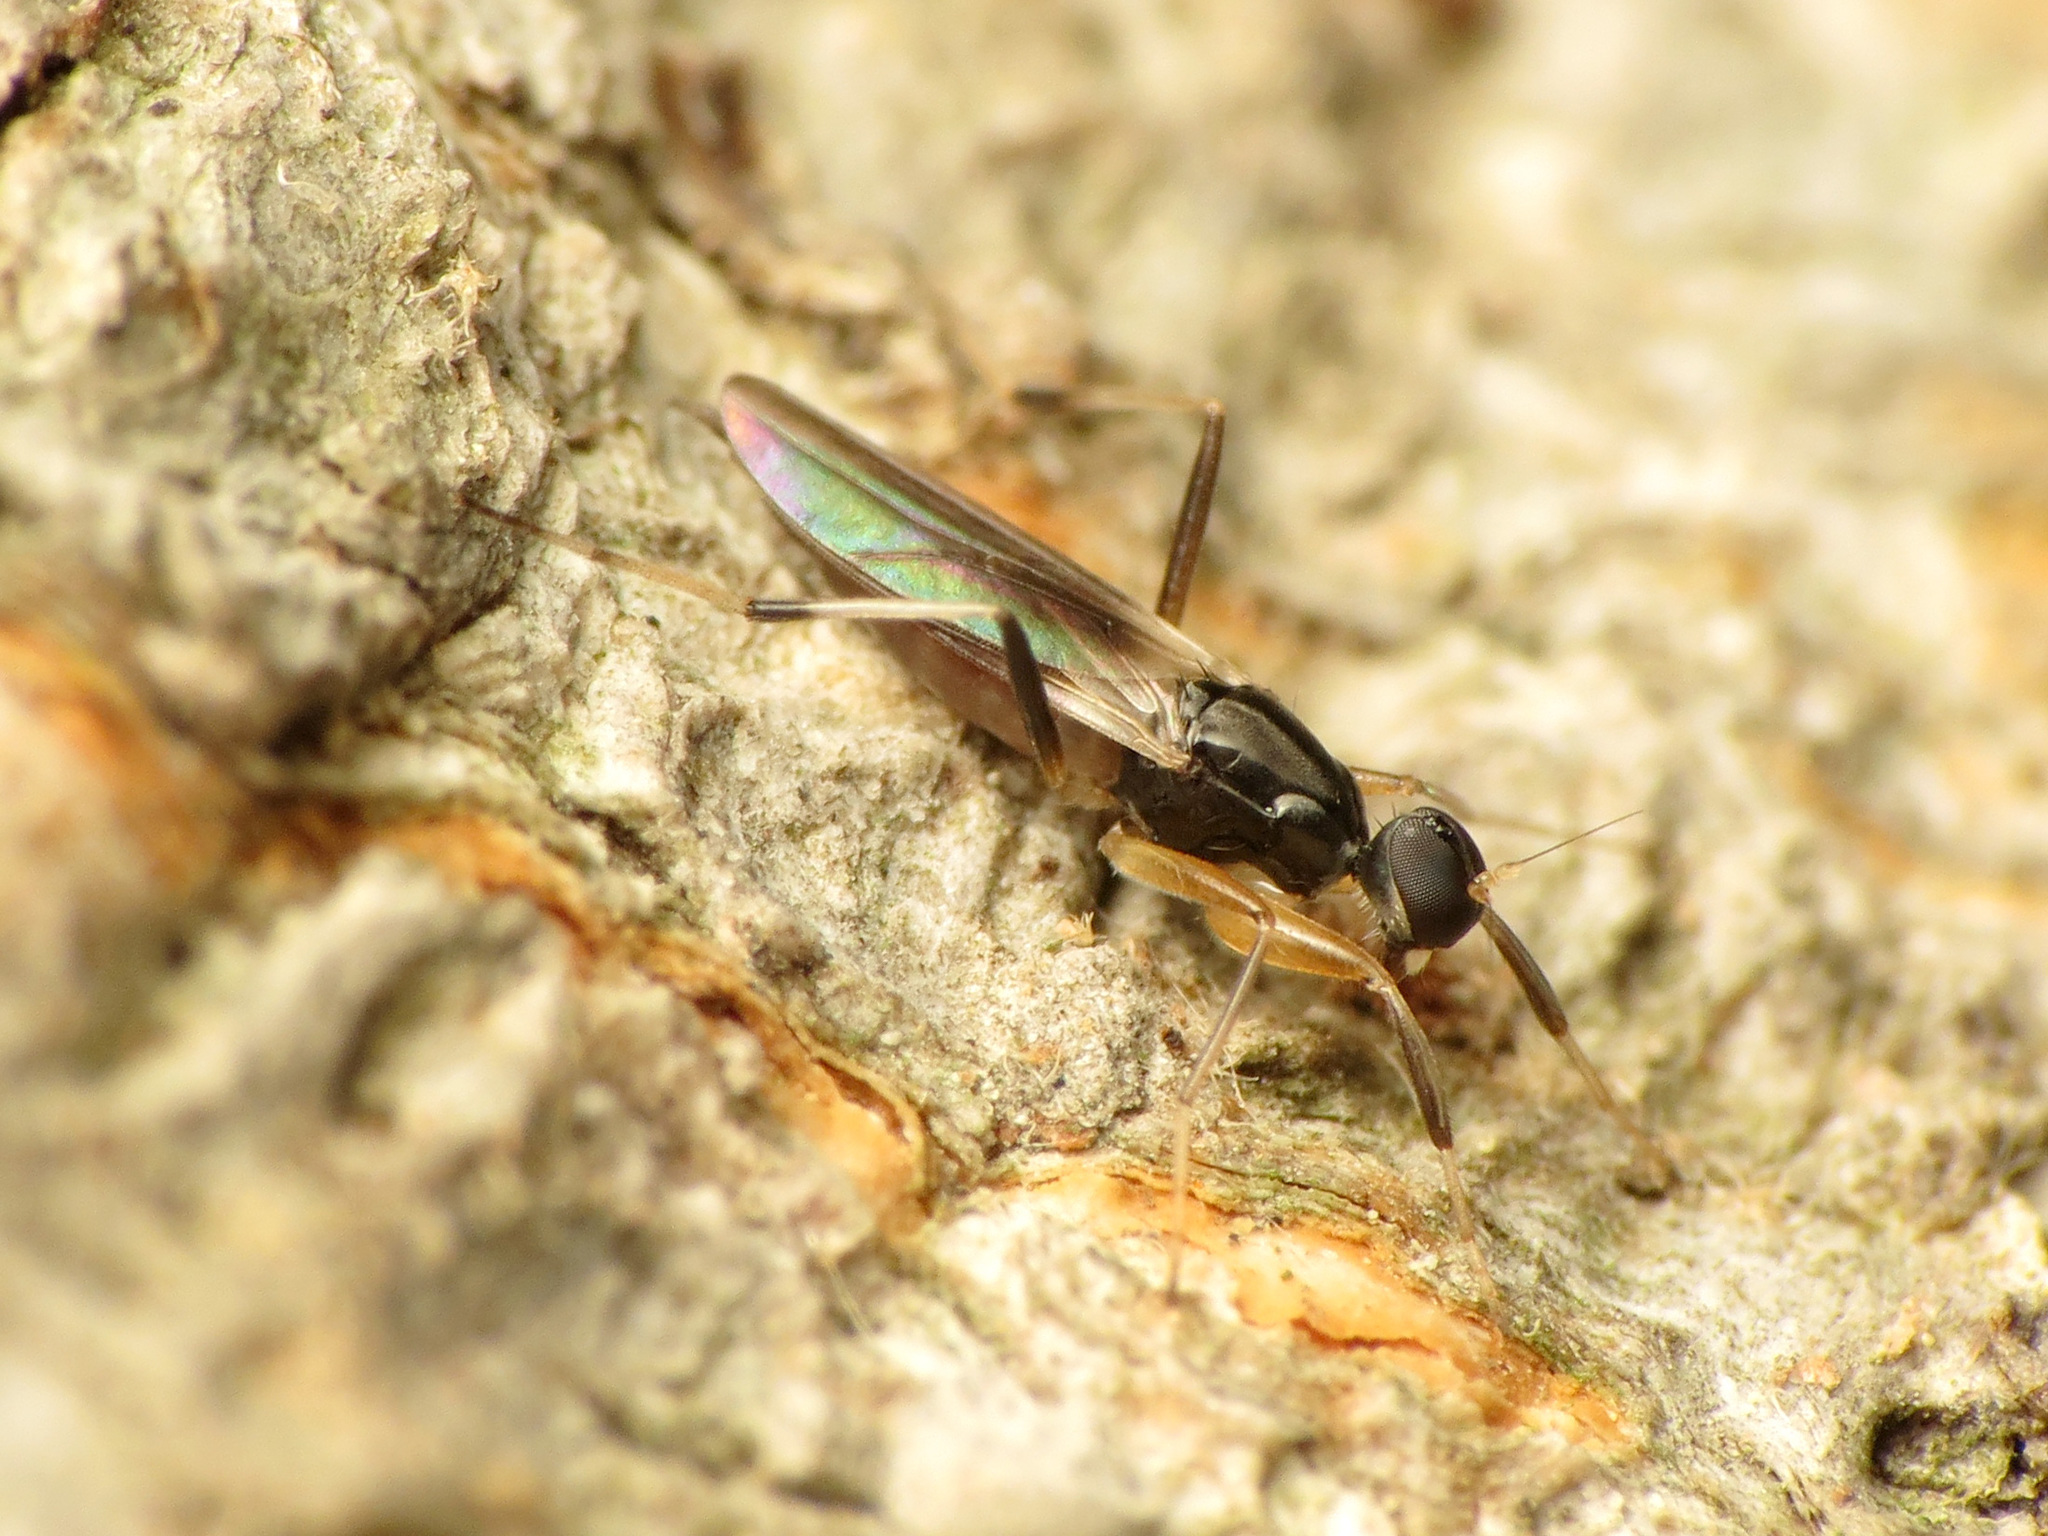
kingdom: Animalia
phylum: Arthropoda
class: Insecta
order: Diptera
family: Hybotidae
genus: Tachypeza
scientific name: Tachypeza fenestrata
